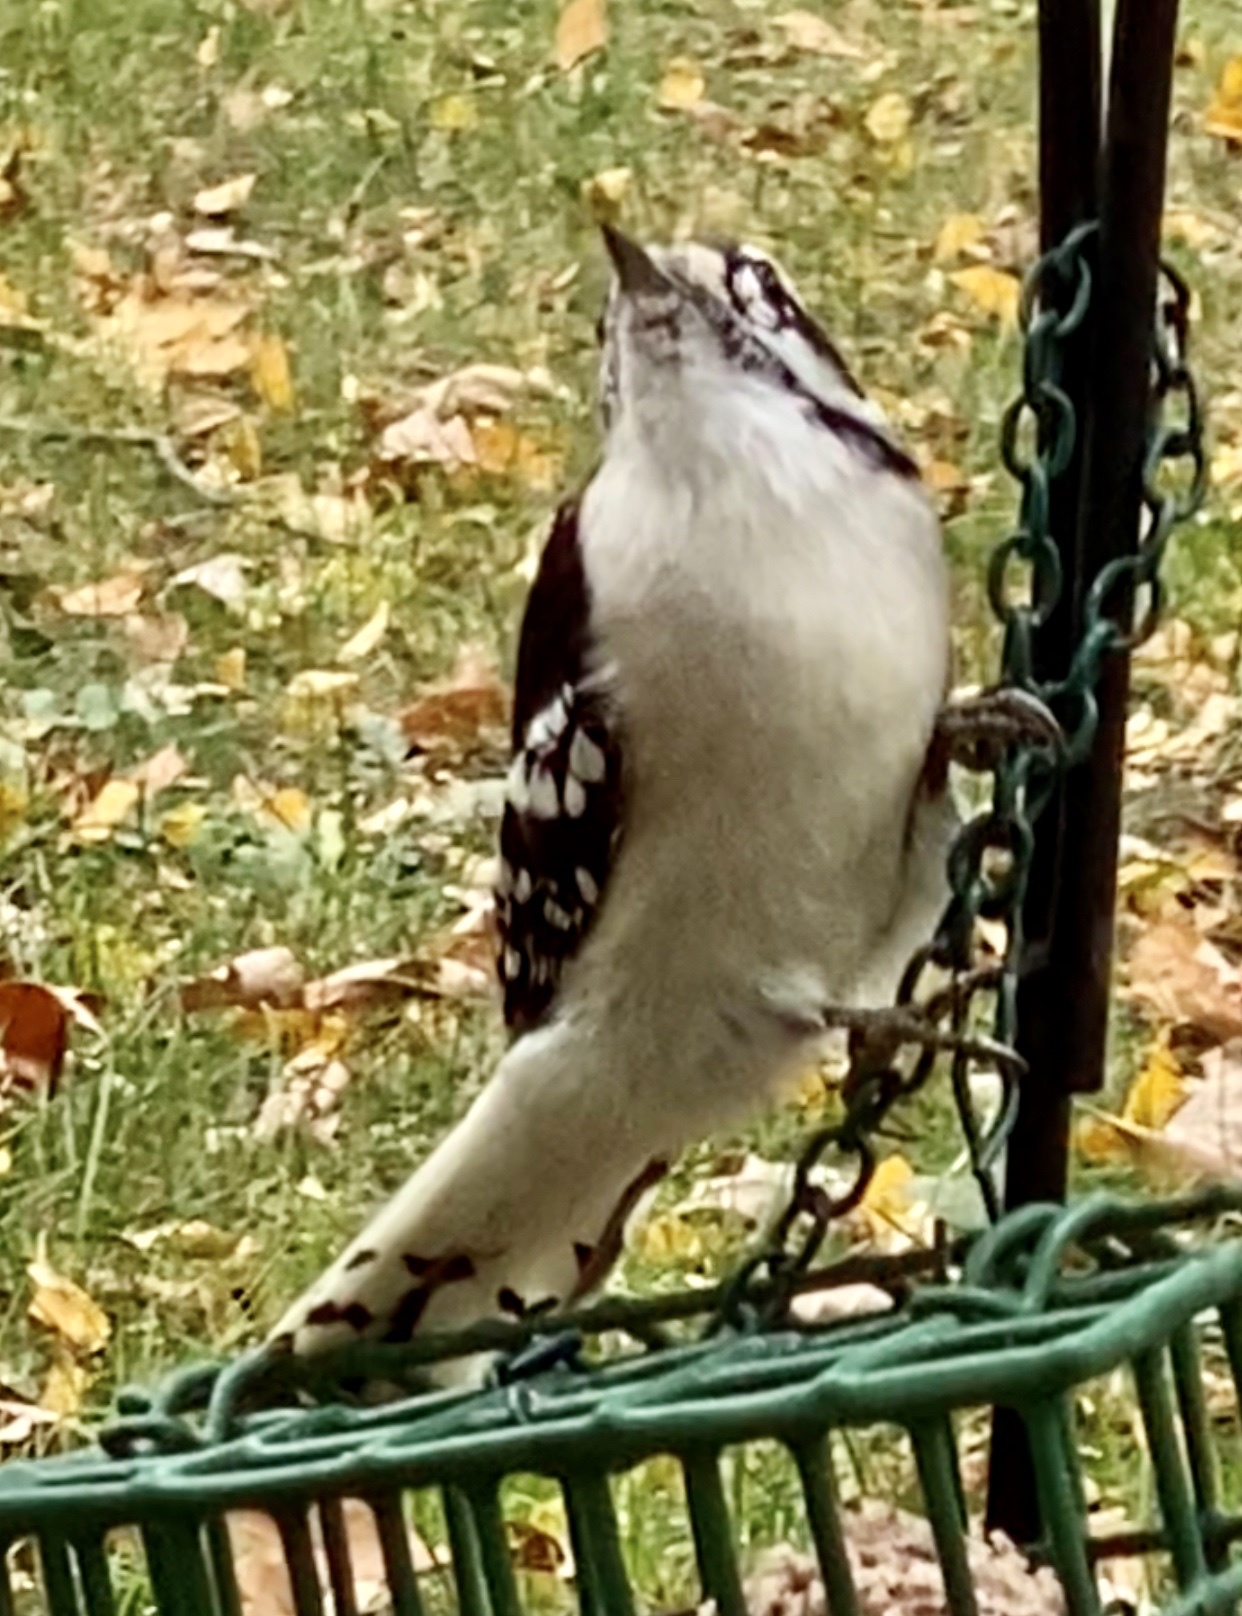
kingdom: Animalia
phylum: Chordata
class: Aves
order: Piciformes
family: Picidae
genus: Dryobates
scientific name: Dryobates pubescens
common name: Downy woodpecker
